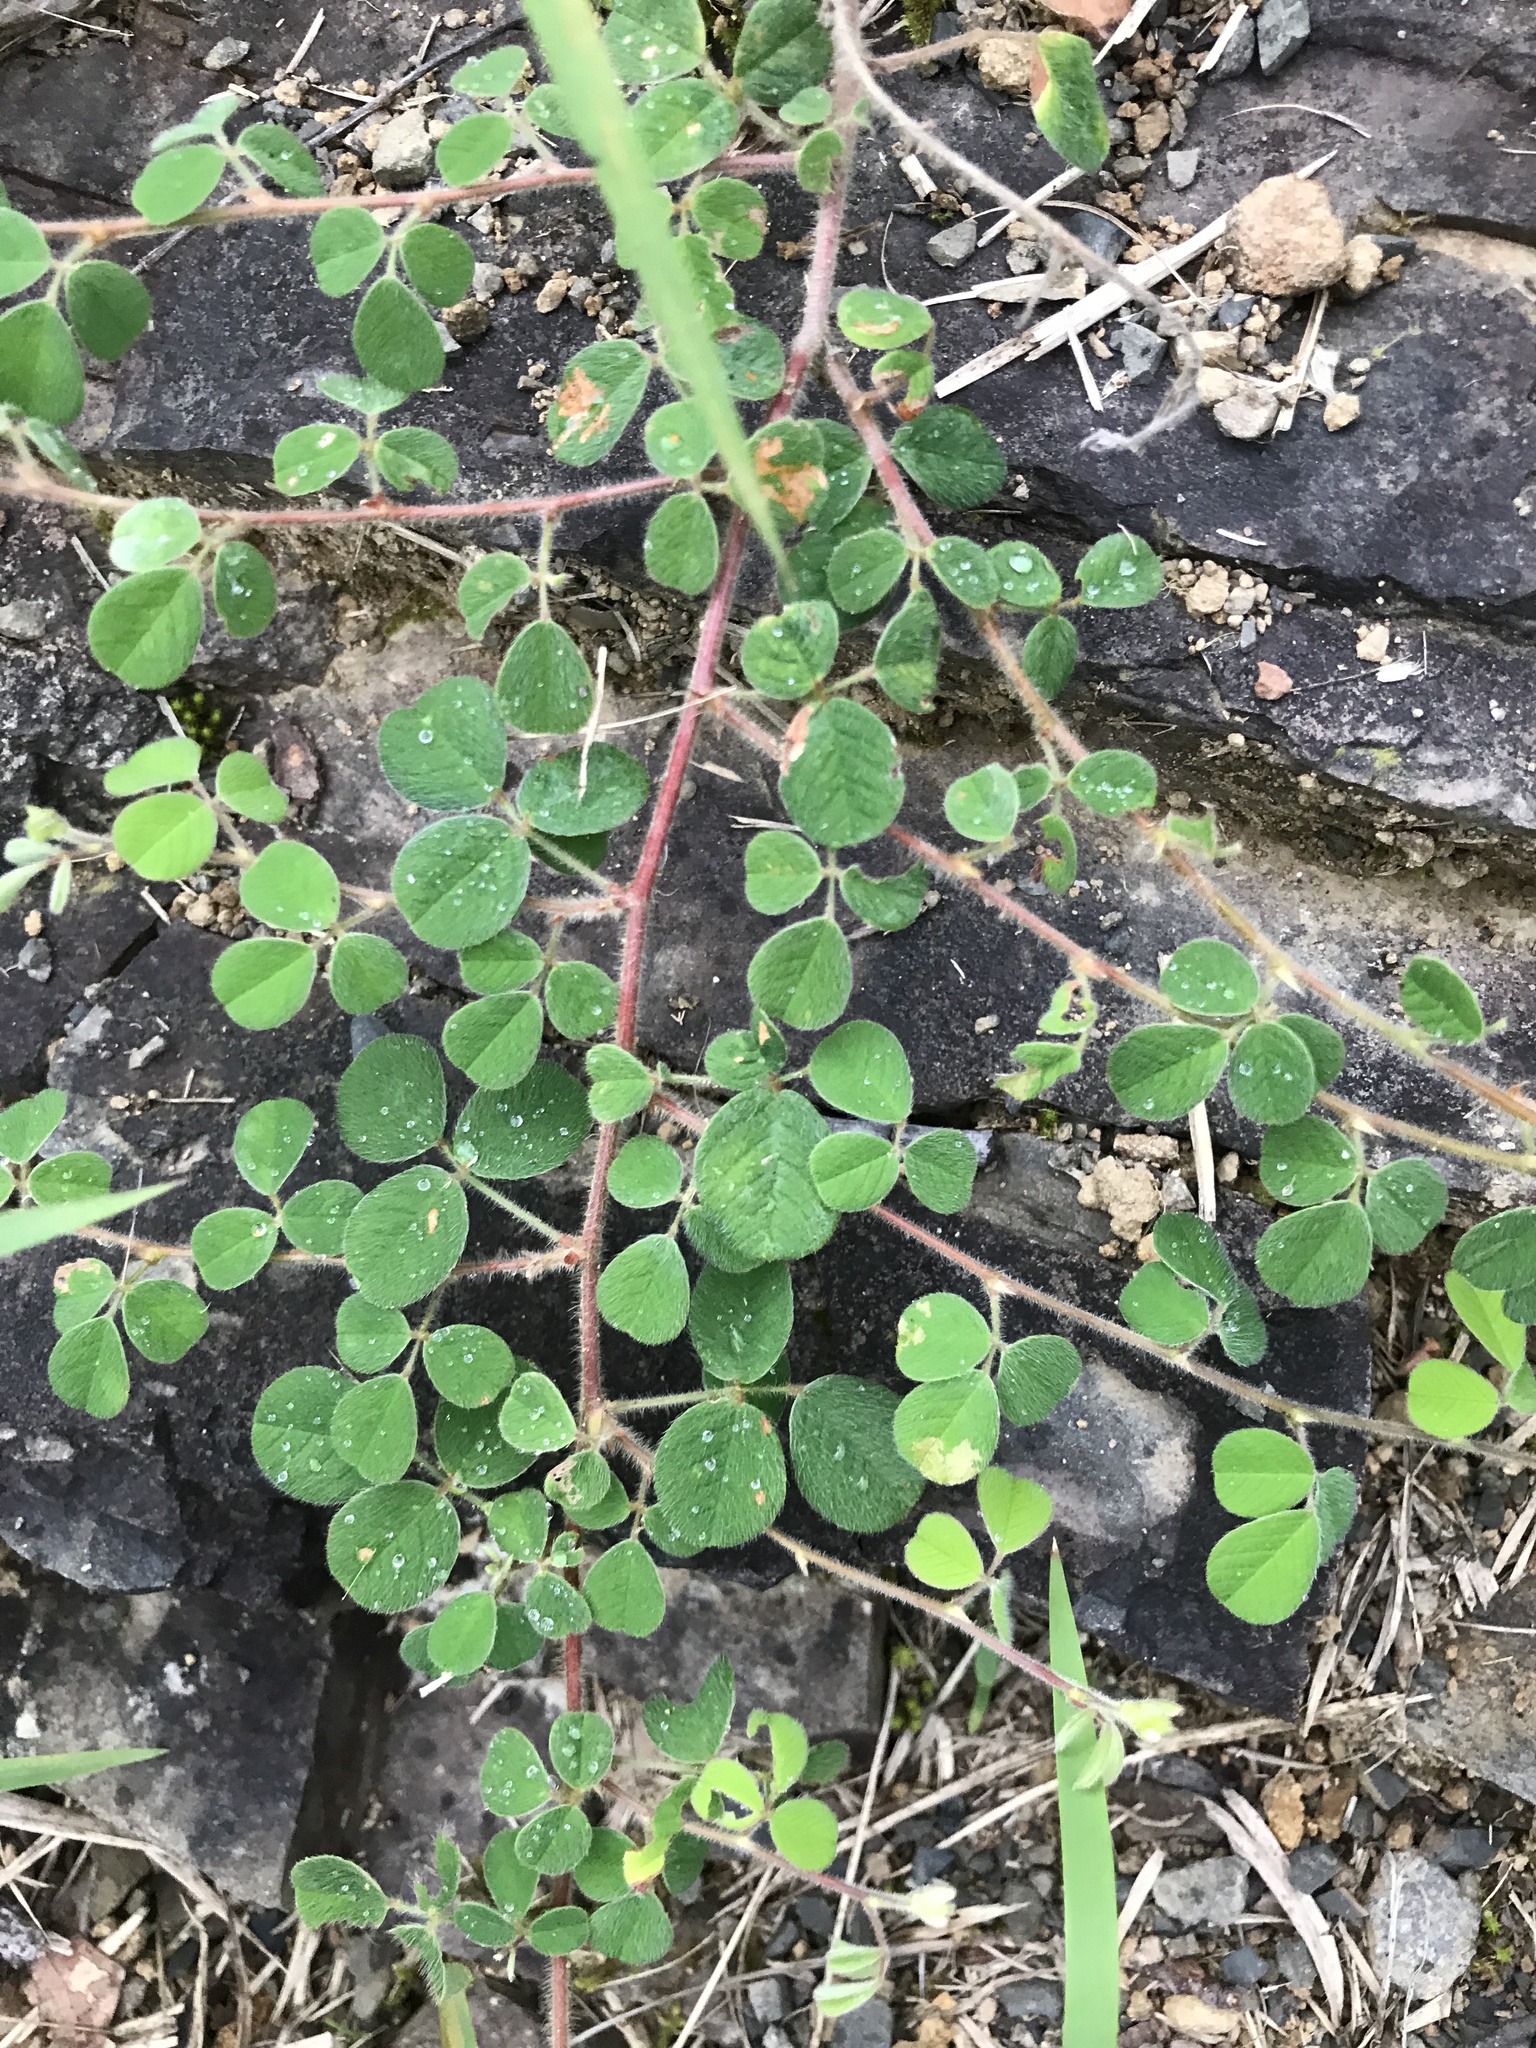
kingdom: Plantae
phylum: Tracheophyta
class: Magnoliopsida
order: Fabales
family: Fabaceae
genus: Lespedeza
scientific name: Lespedeza pilosa
